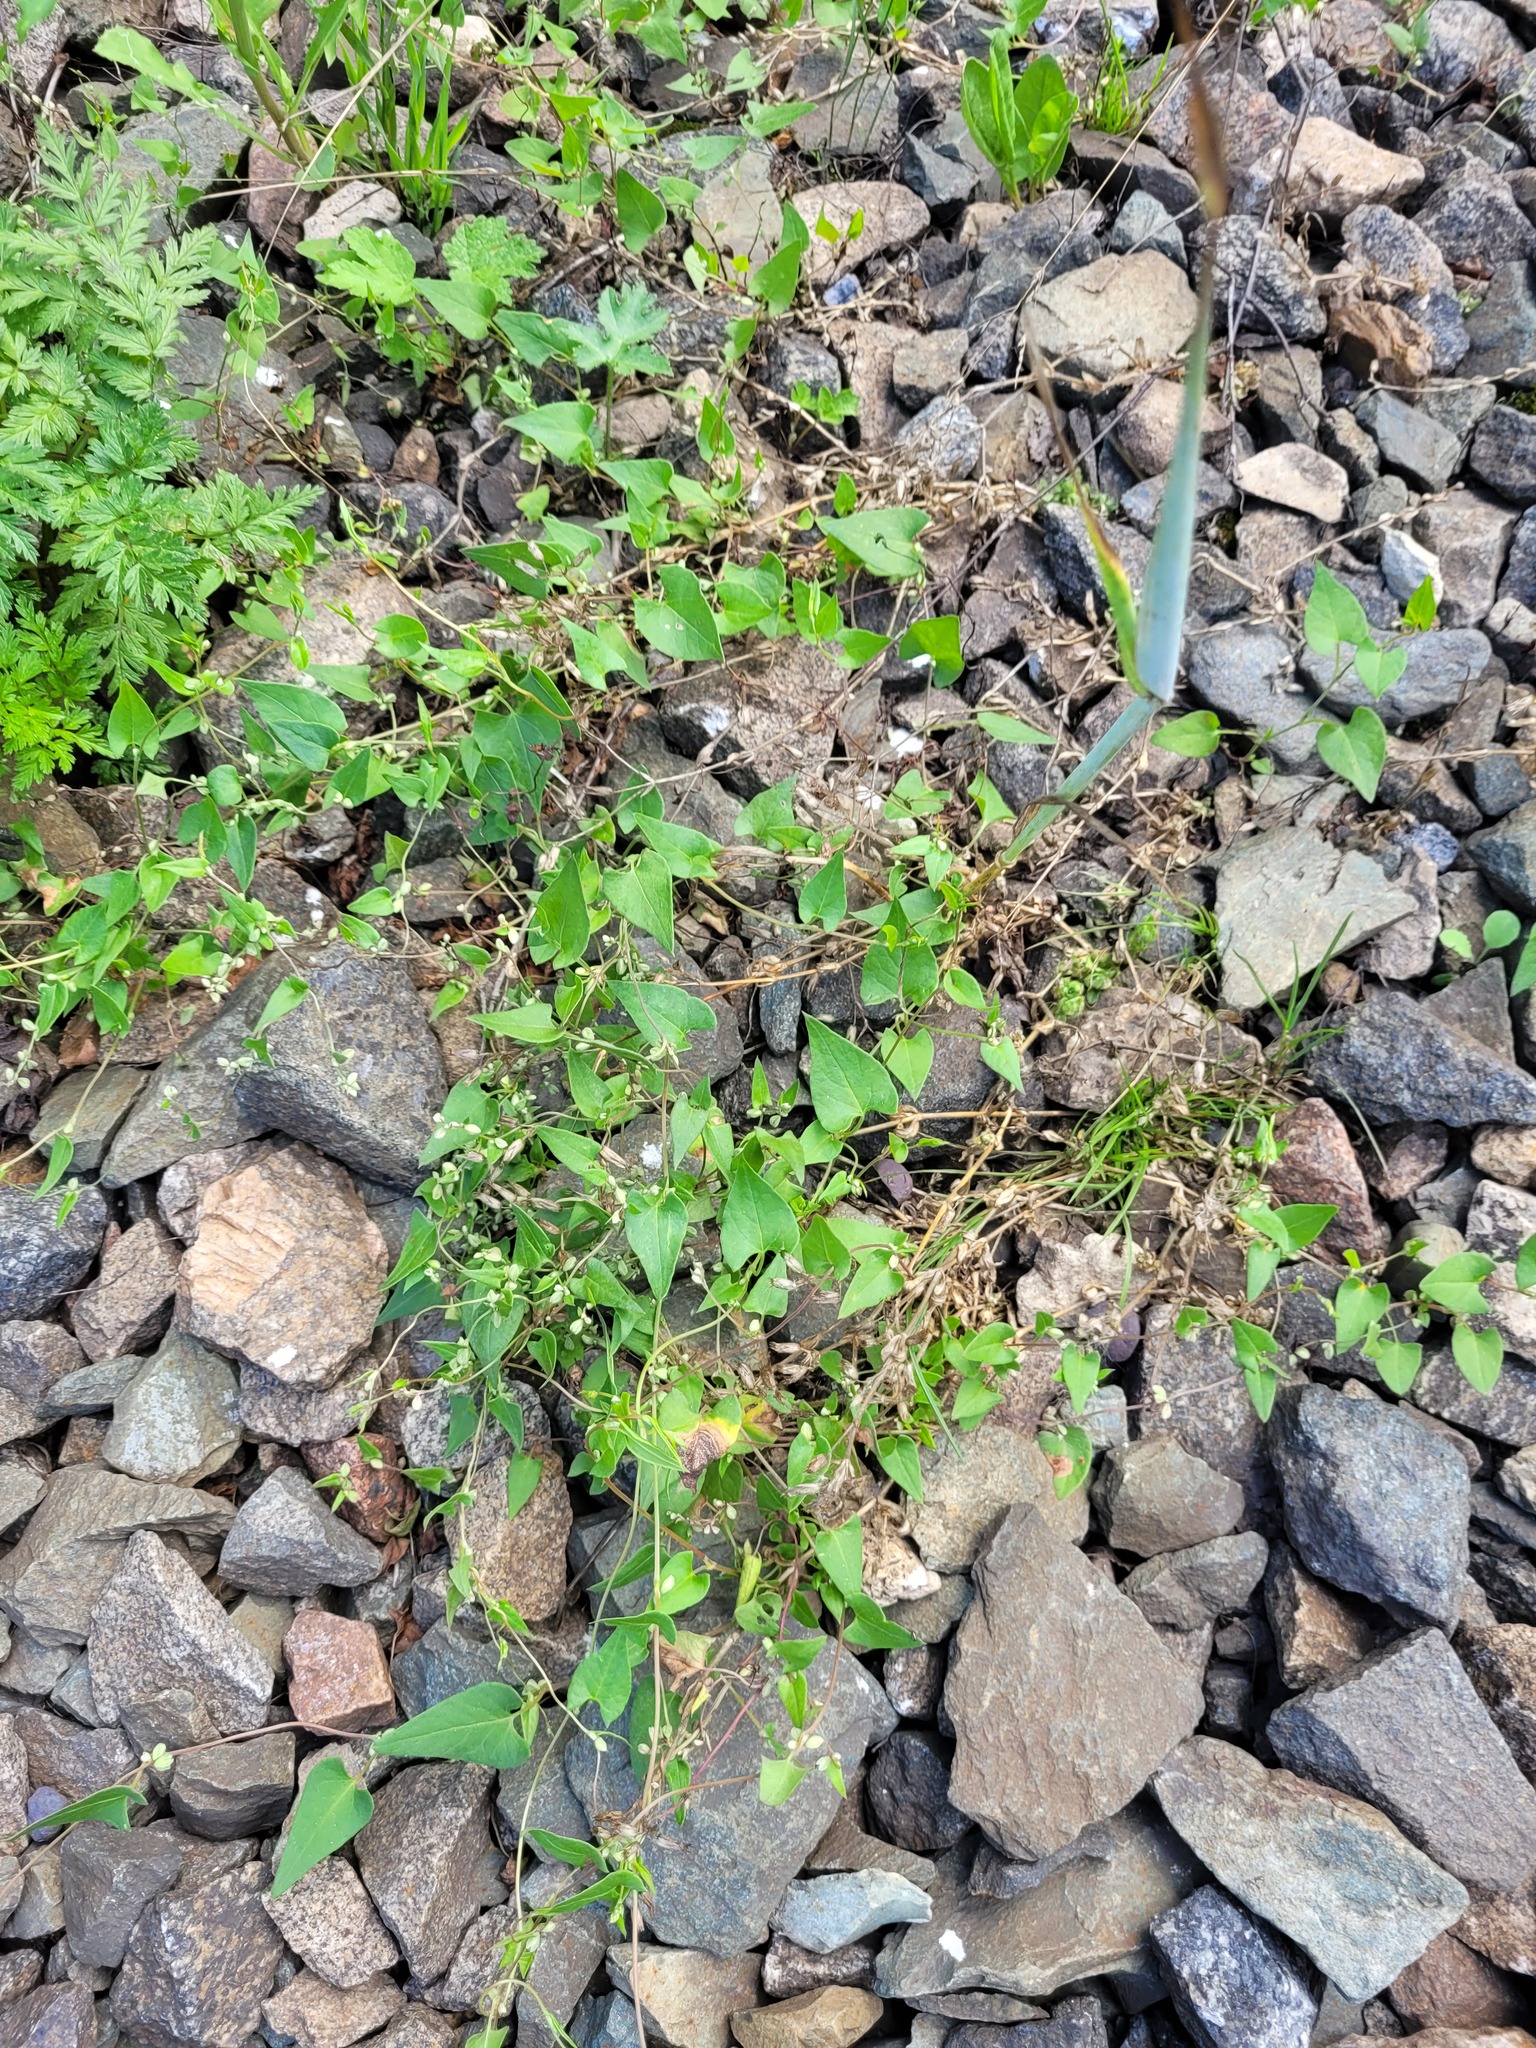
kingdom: Plantae
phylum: Tracheophyta
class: Magnoliopsida
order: Caryophyllales
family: Polygonaceae
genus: Fallopia
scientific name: Fallopia convolvulus
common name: Black bindweed
